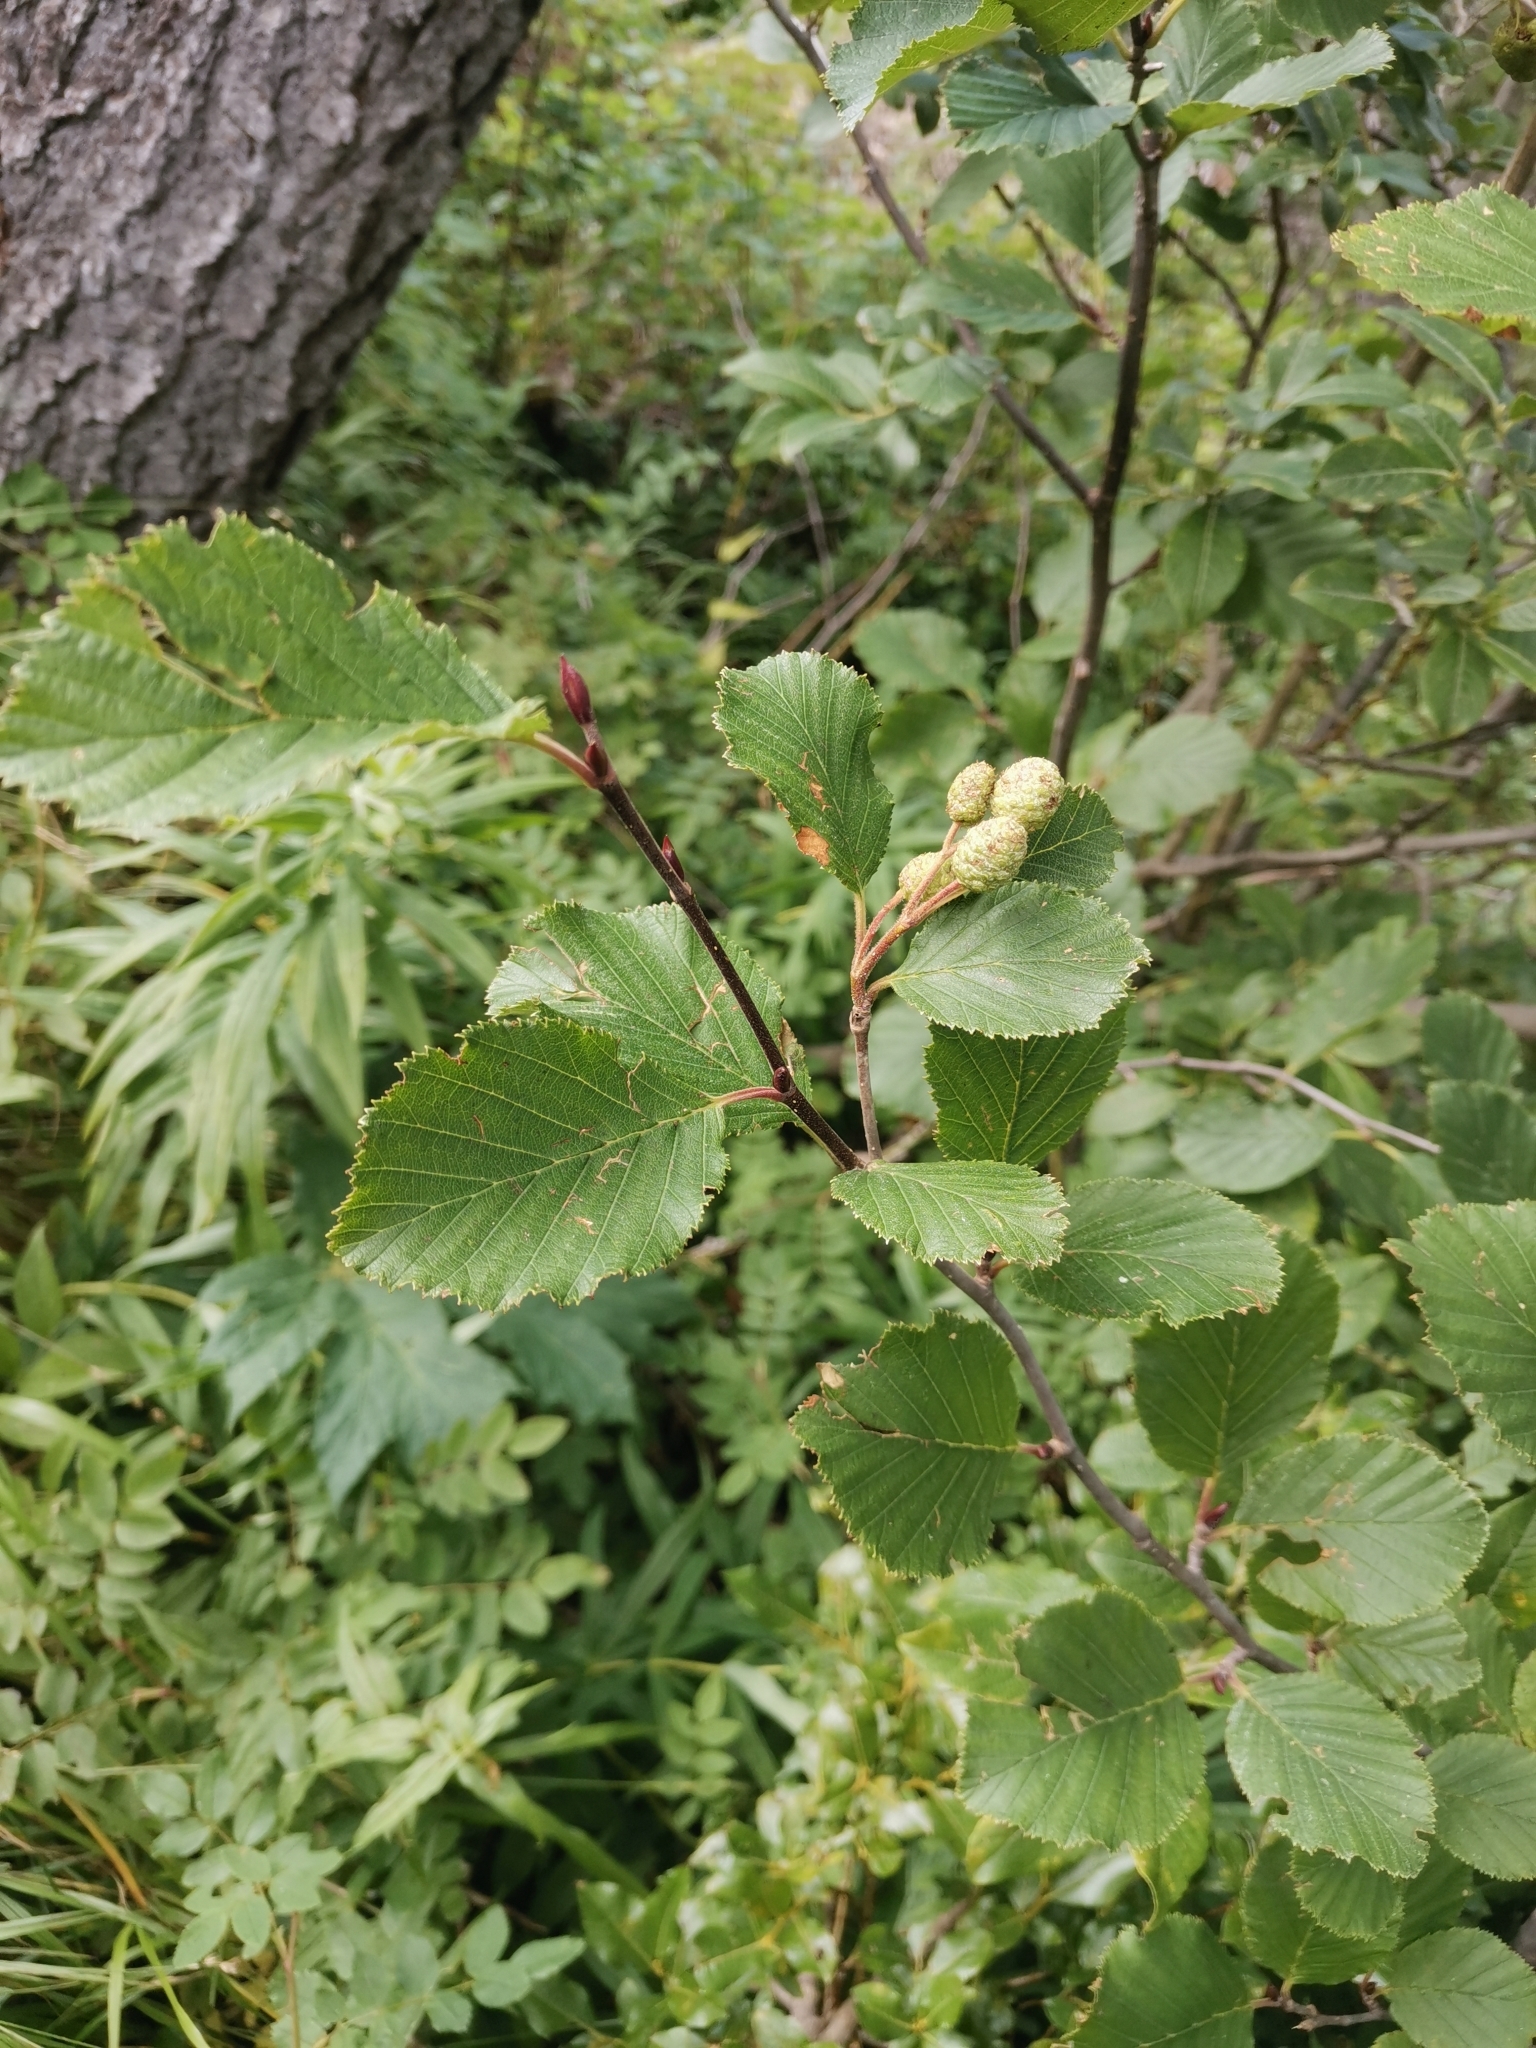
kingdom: Plantae
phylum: Tracheophyta
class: Magnoliopsida
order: Fagales
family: Betulaceae
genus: Alnus
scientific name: Alnus alnobetula
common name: Green alder
